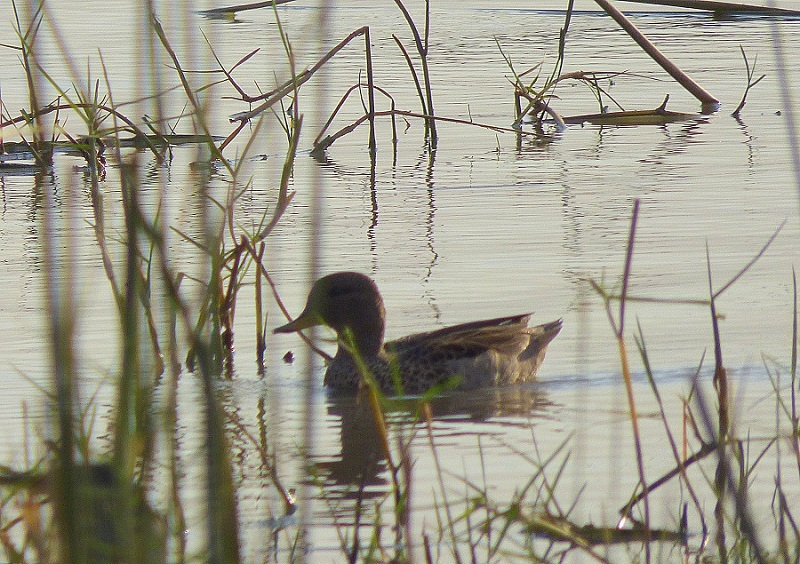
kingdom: Animalia
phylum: Chordata
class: Aves
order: Anseriformes
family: Anatidae
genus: Anas
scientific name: Anas flavirostris
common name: Yellow-billed teal
